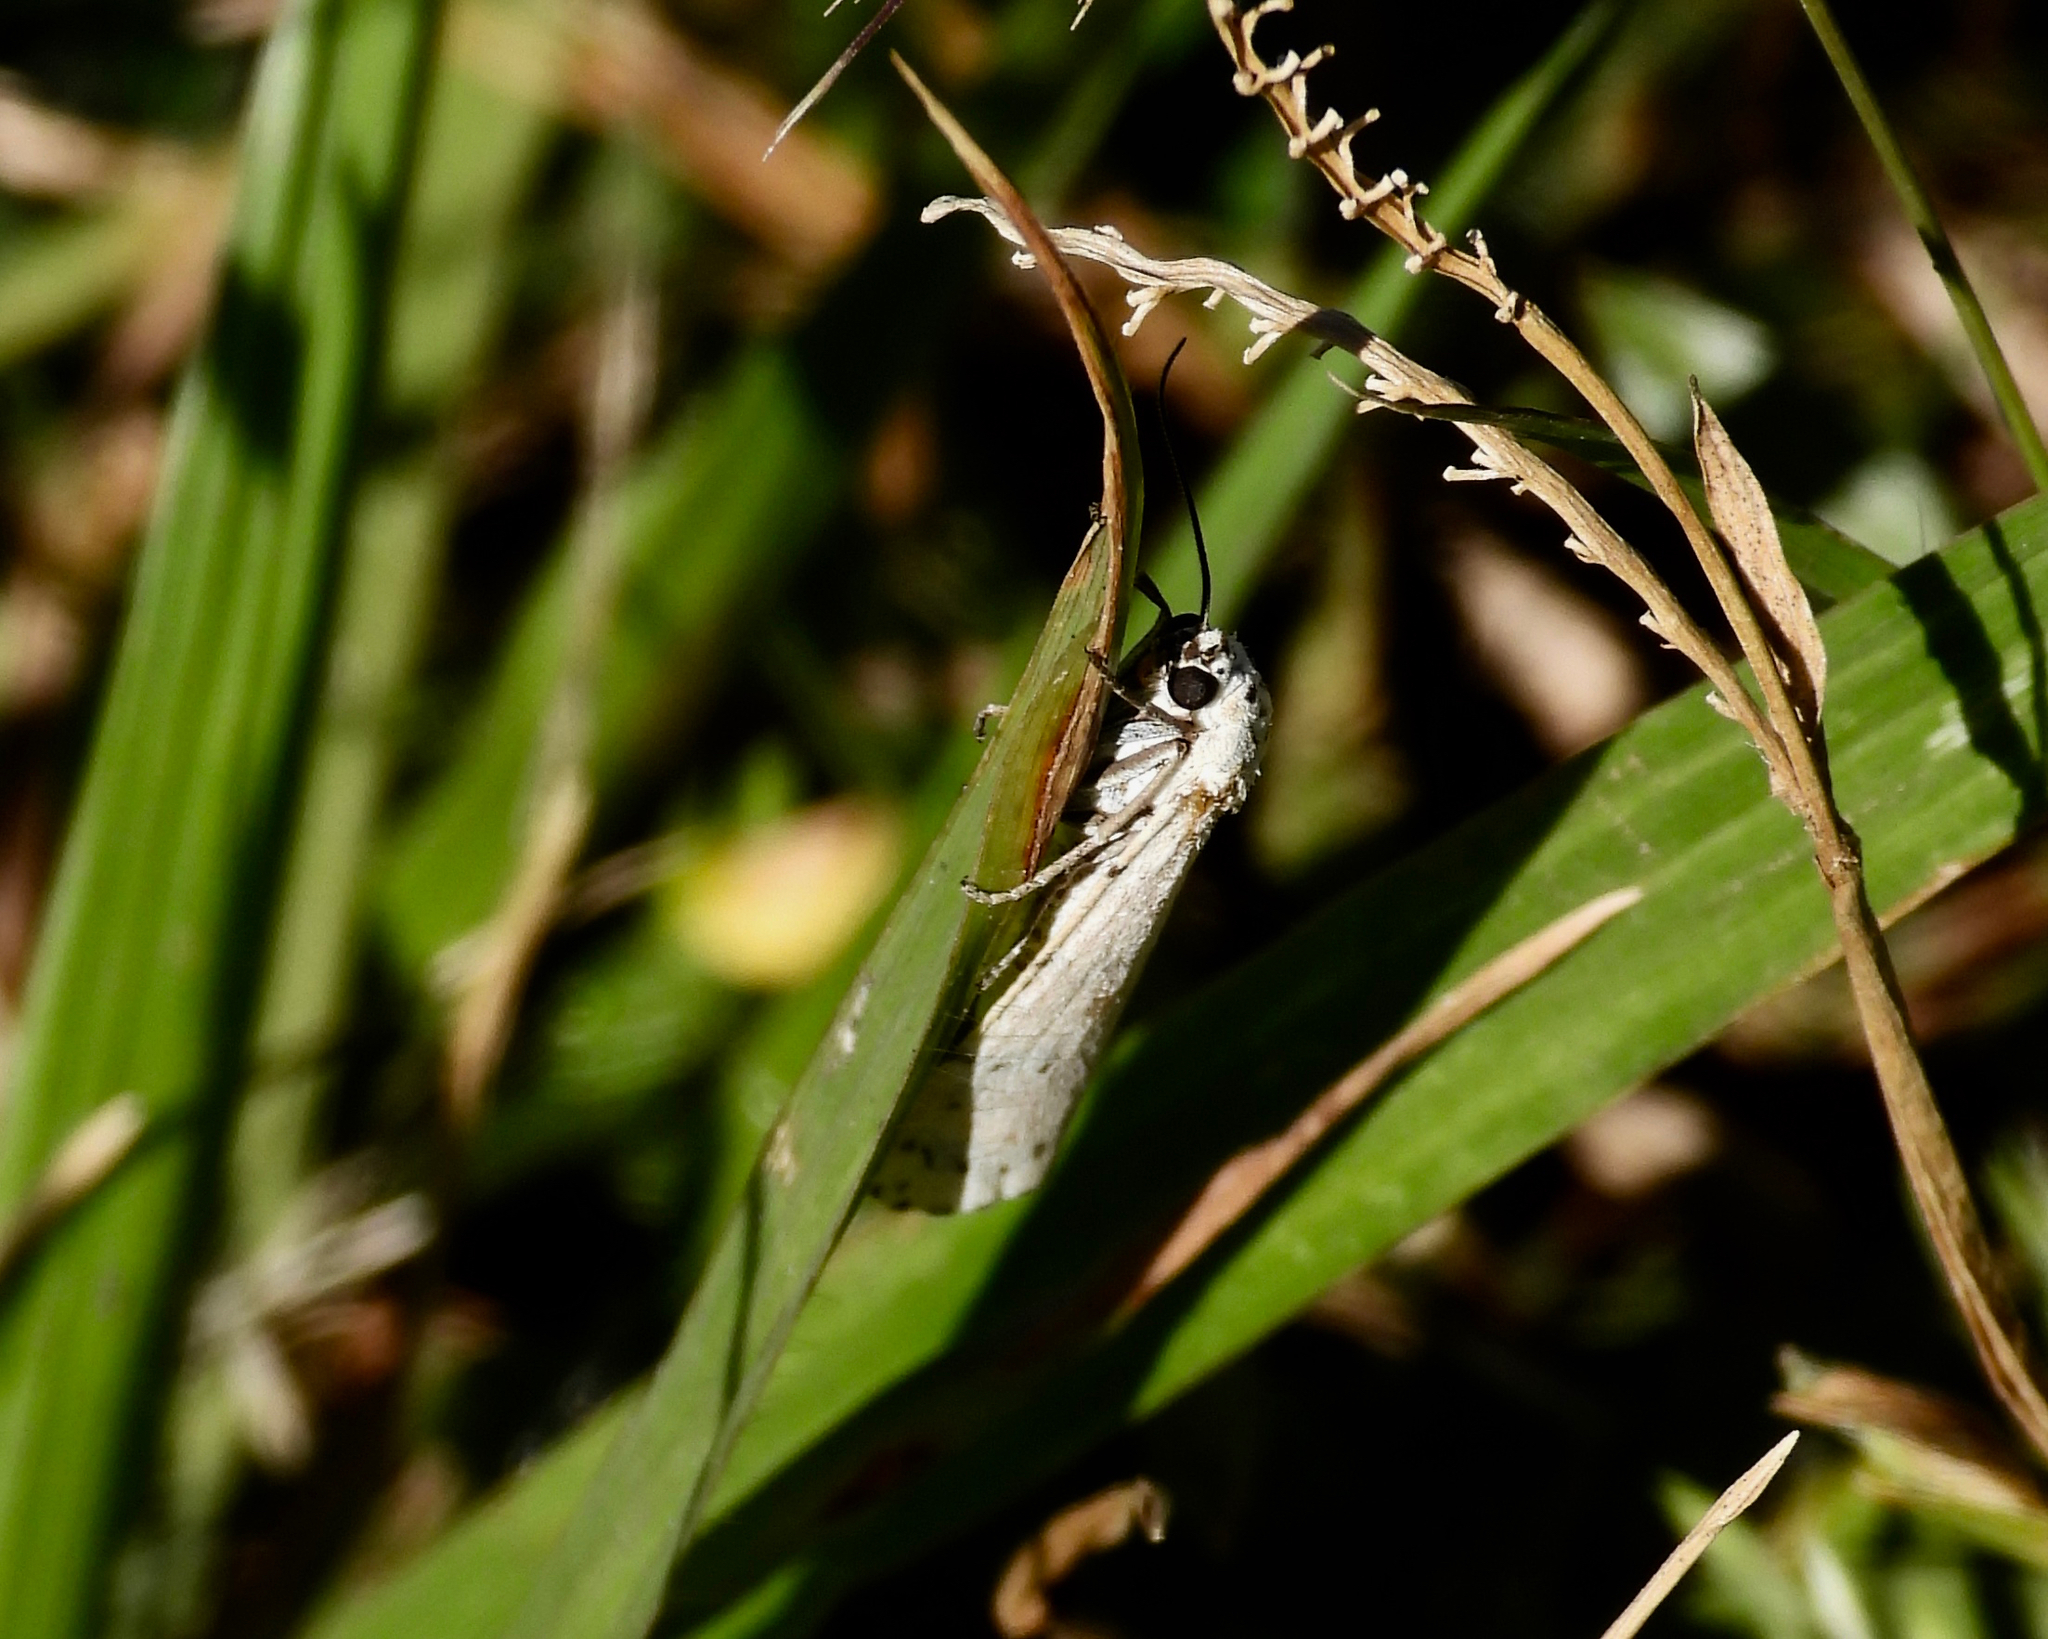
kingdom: Animalia
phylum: Arthropoda
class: Insecta
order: Lepidoptera
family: Erebidae
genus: Utetheisa
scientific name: Utetheisa ornatrix
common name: Beautiful utetheisa
